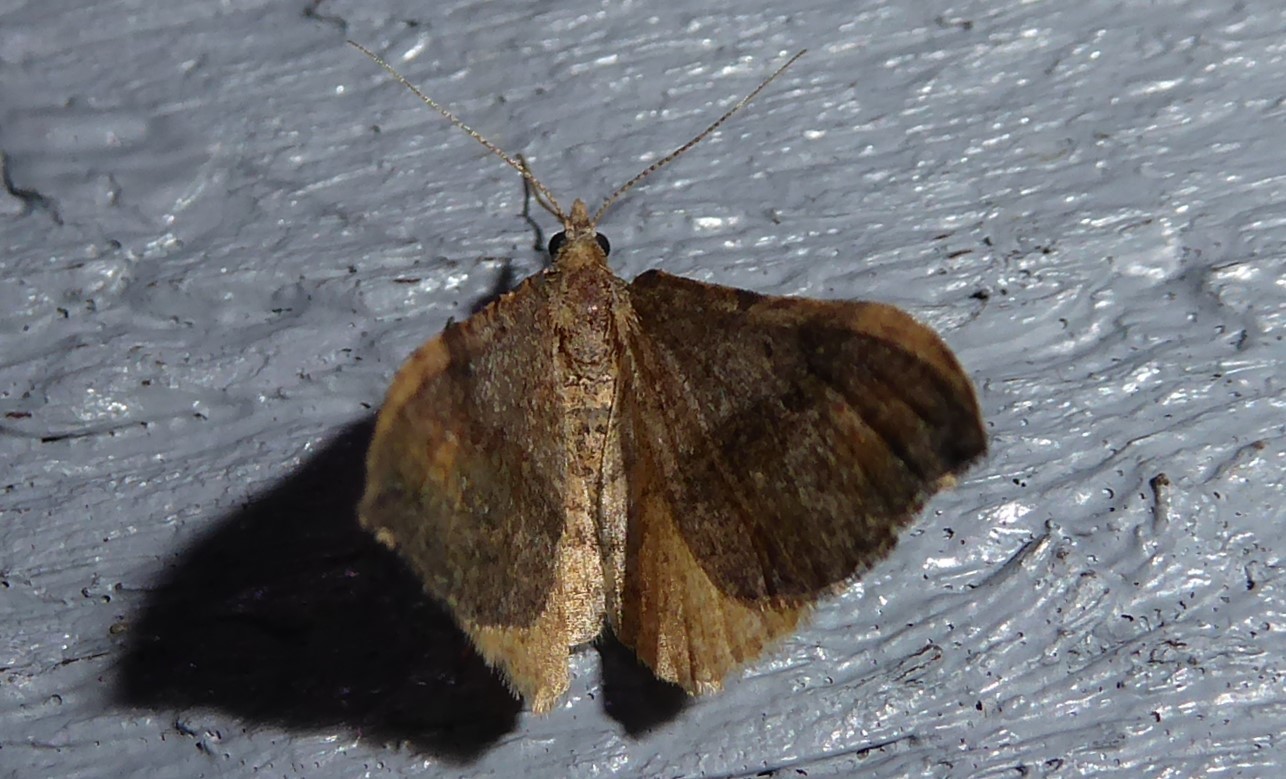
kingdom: Animalia
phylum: Arthropoda
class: Insecta
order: Lepidoptera
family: Geometridae
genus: Homodotis
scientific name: Homodotis megaspilata
